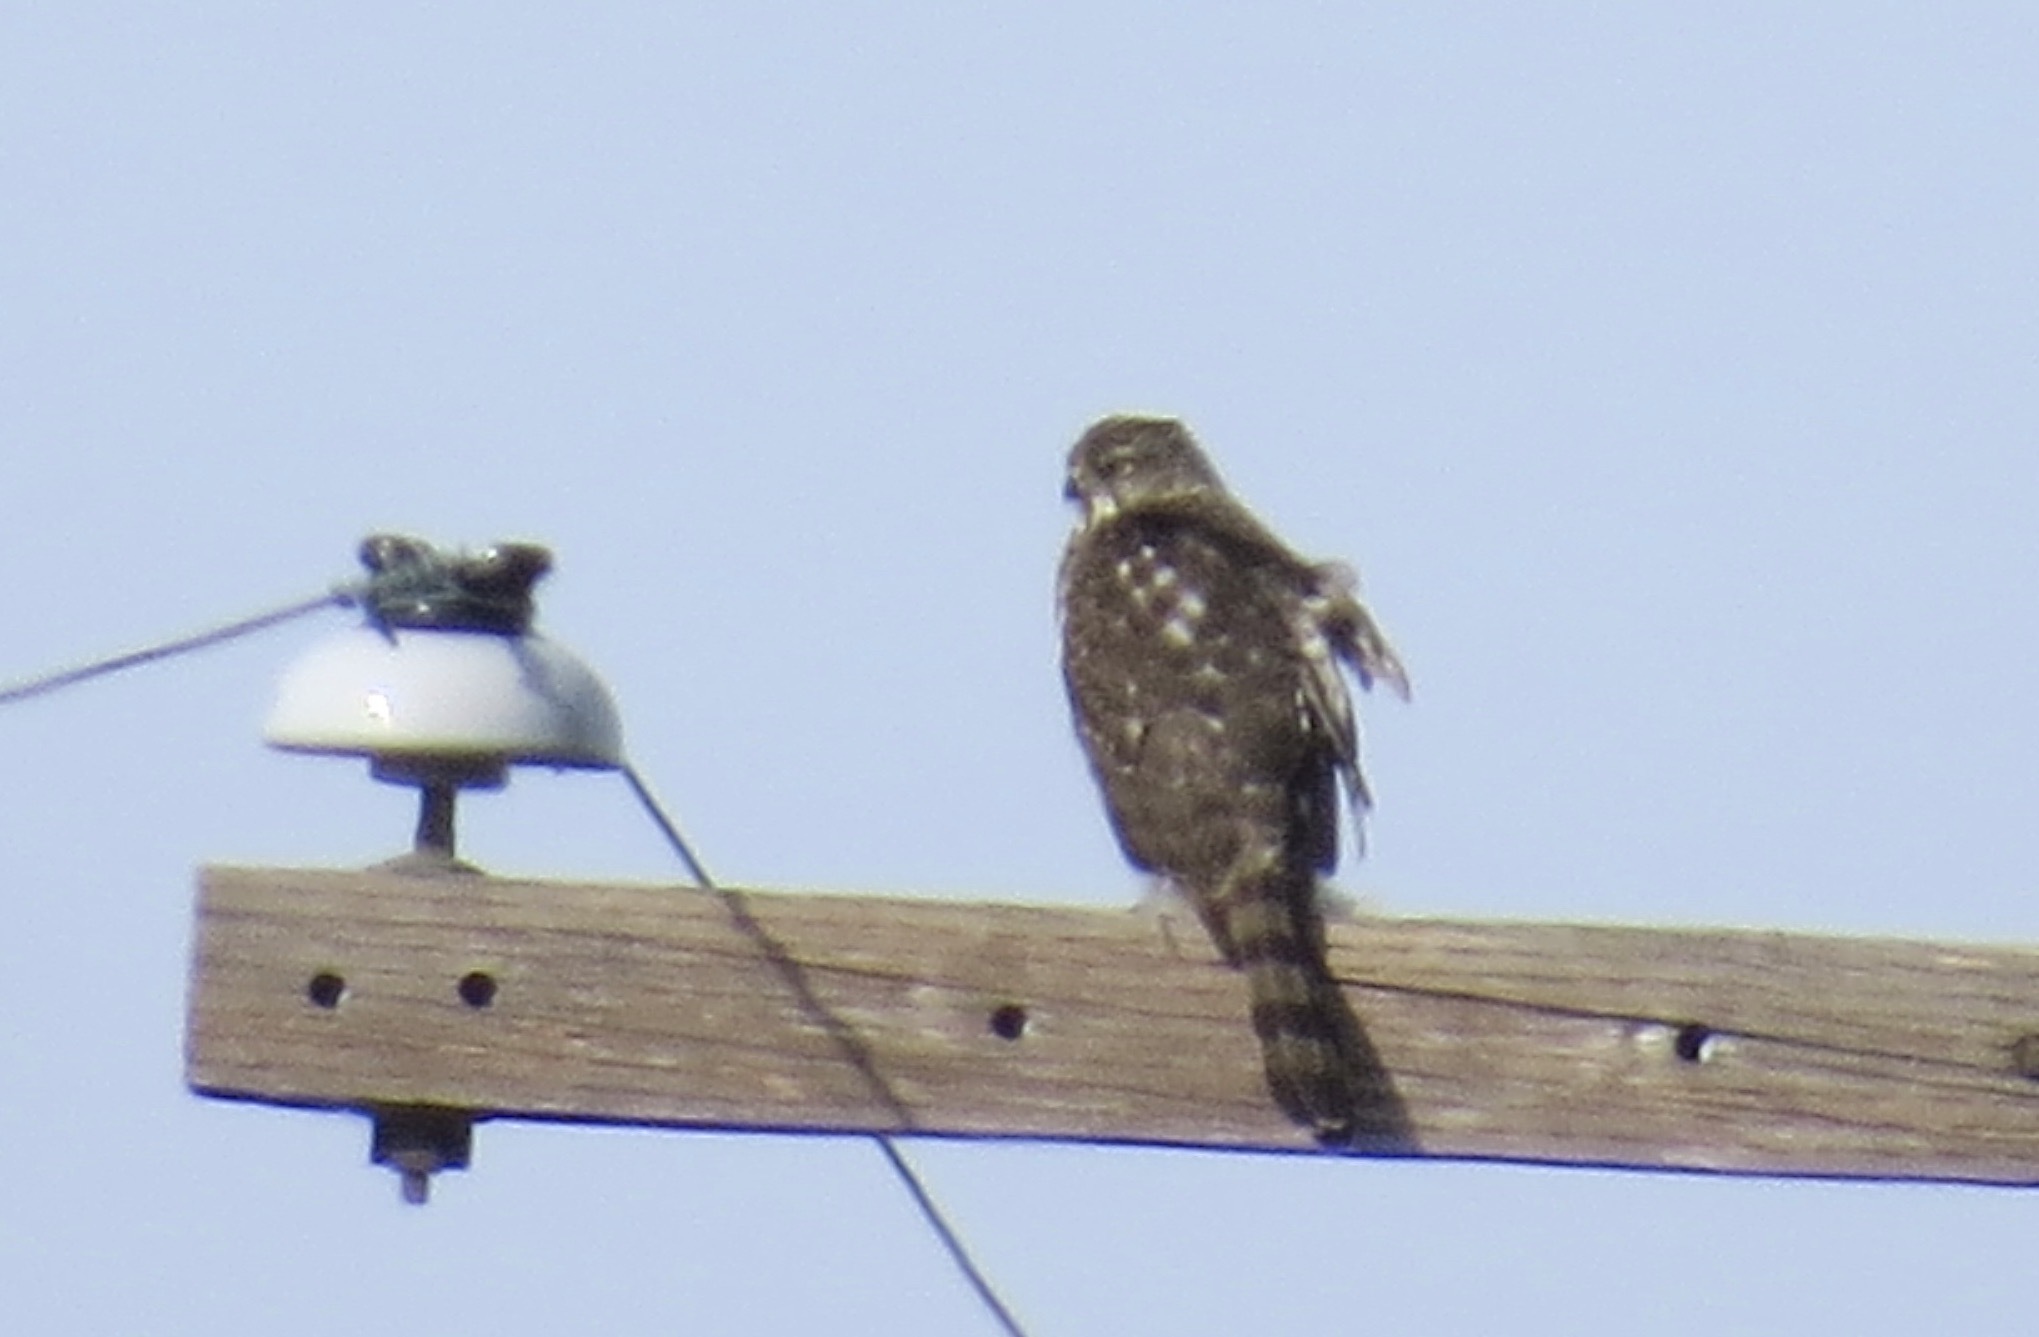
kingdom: Animalia
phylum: Chordata
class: Aves
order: Accipitriformes
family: Accipitridae
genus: Accipiter
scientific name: Accipiter cooperii
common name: Cooper's hawk
